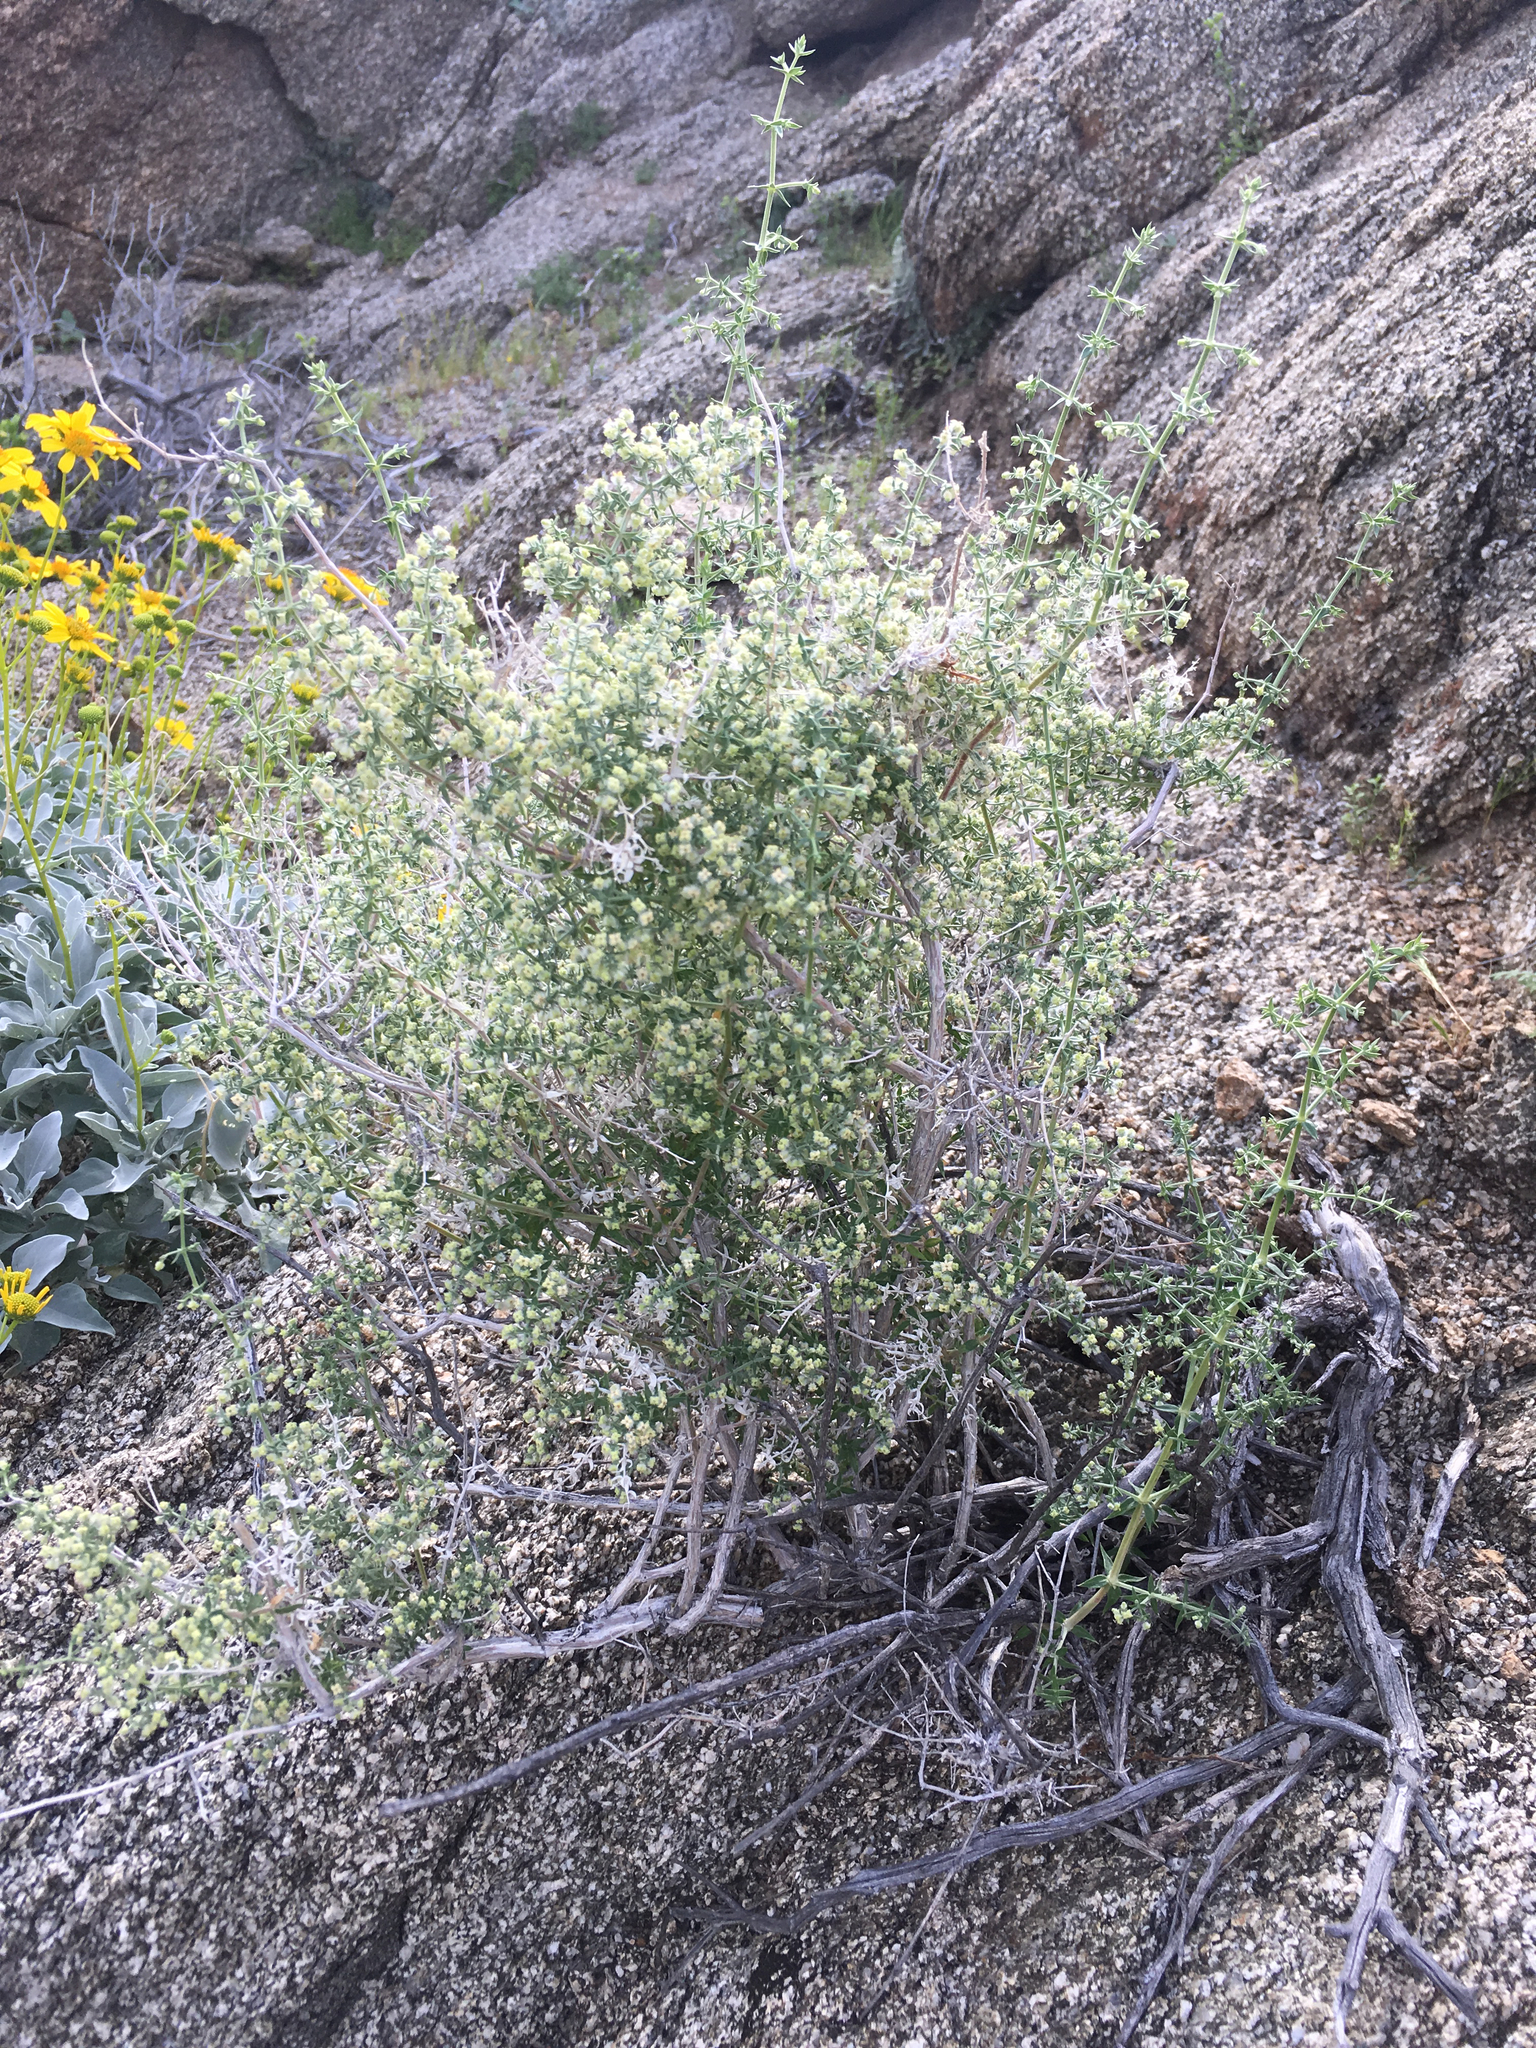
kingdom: Plantae
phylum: Tracheophyta
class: Magnoliopsida
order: Gentianales
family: Rubiaceae
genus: Galium
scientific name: Galium stellatum
